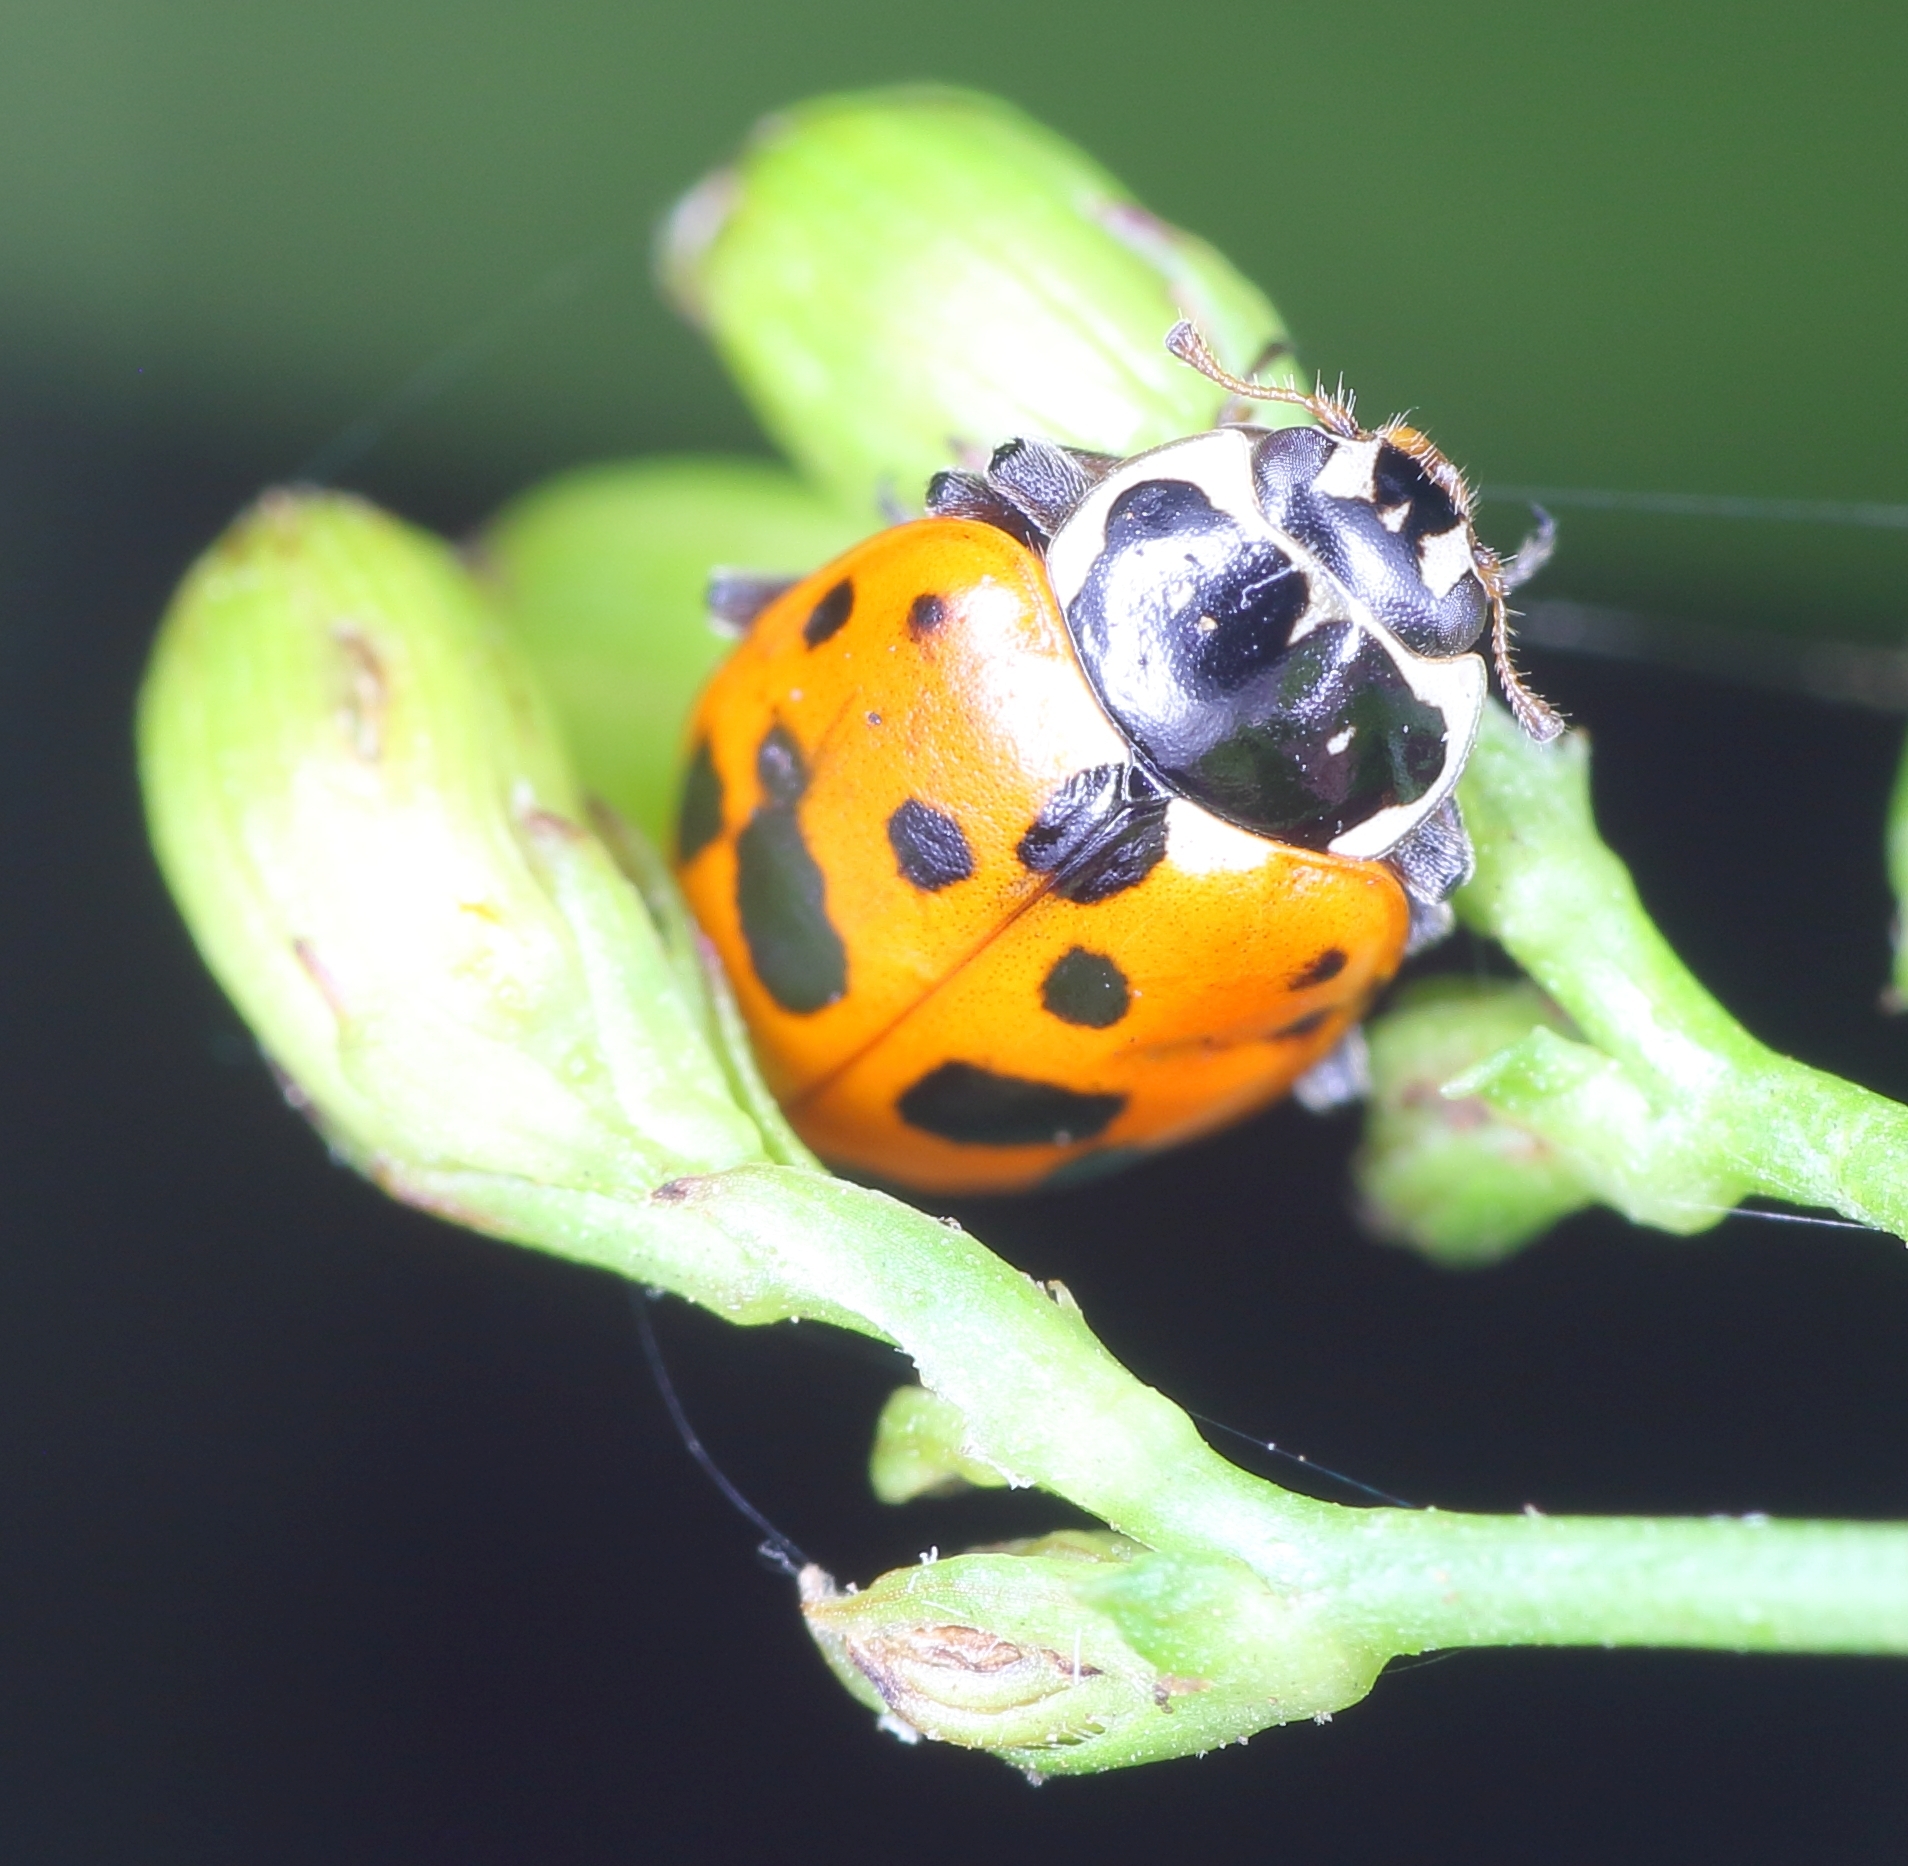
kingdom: Animalia
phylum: Arthropoda
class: Insecta
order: Coleoptera
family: Coccinellidae
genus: Hippodamia
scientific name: Hippodamia variegata
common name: Ladybird beetle
